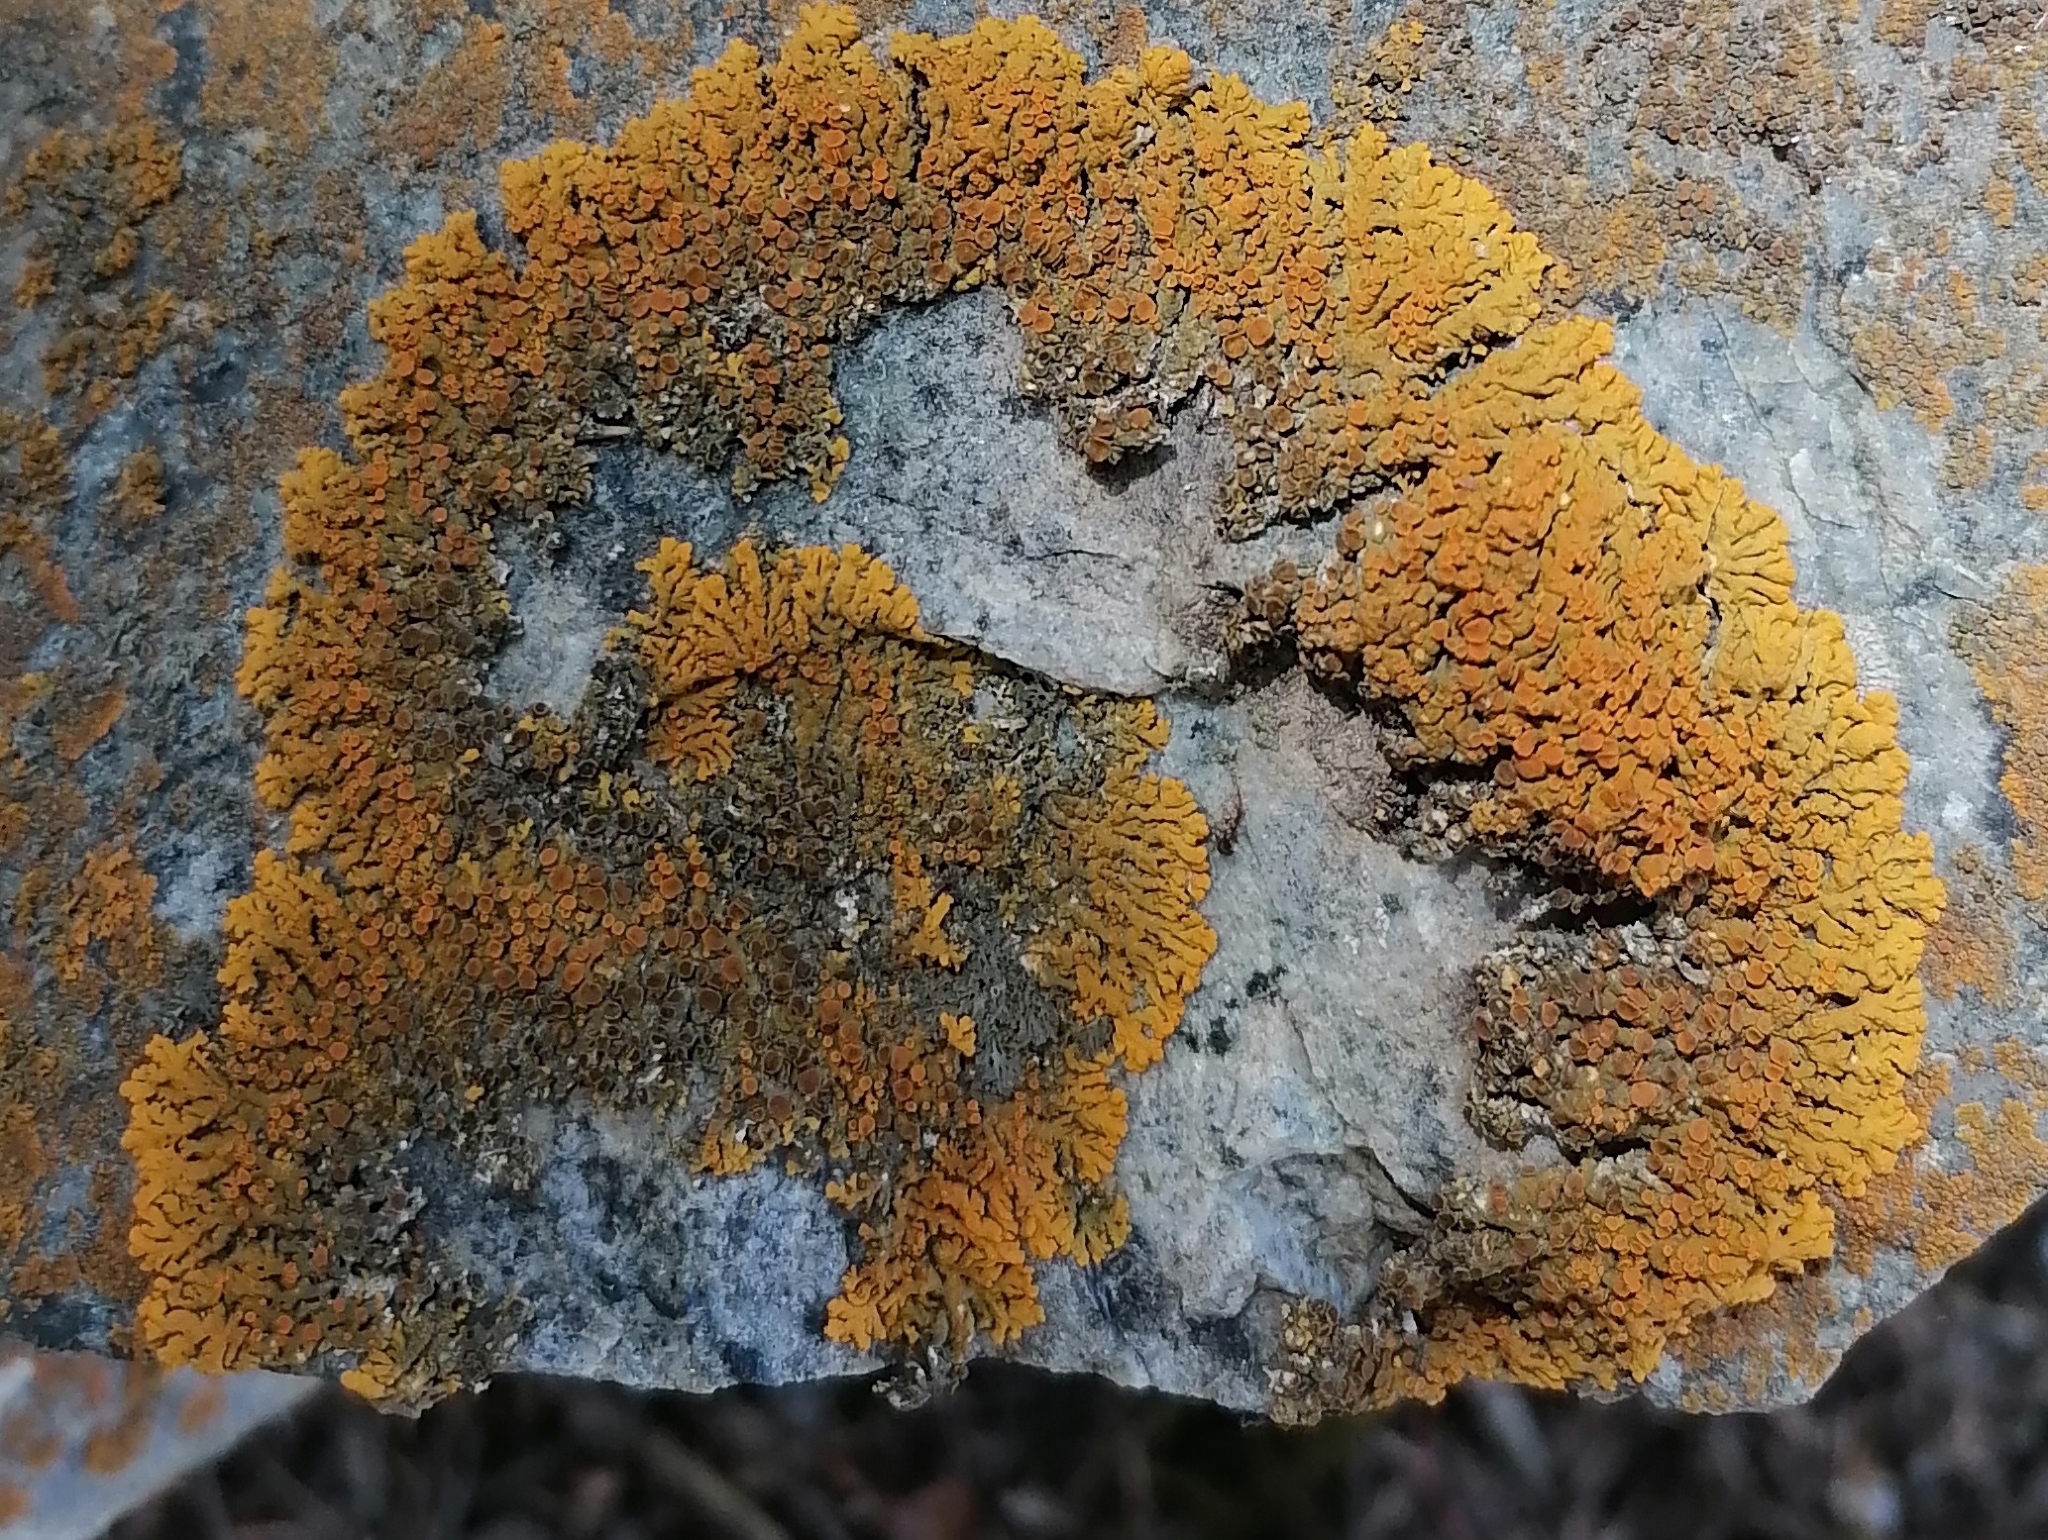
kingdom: Fungi
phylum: Ascomycota
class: Lecanoromycetes
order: Teloschistales
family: Teloschistaceae
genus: Xanthoria
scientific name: Xanthoria elegans
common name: Elegant sunburst lichen
